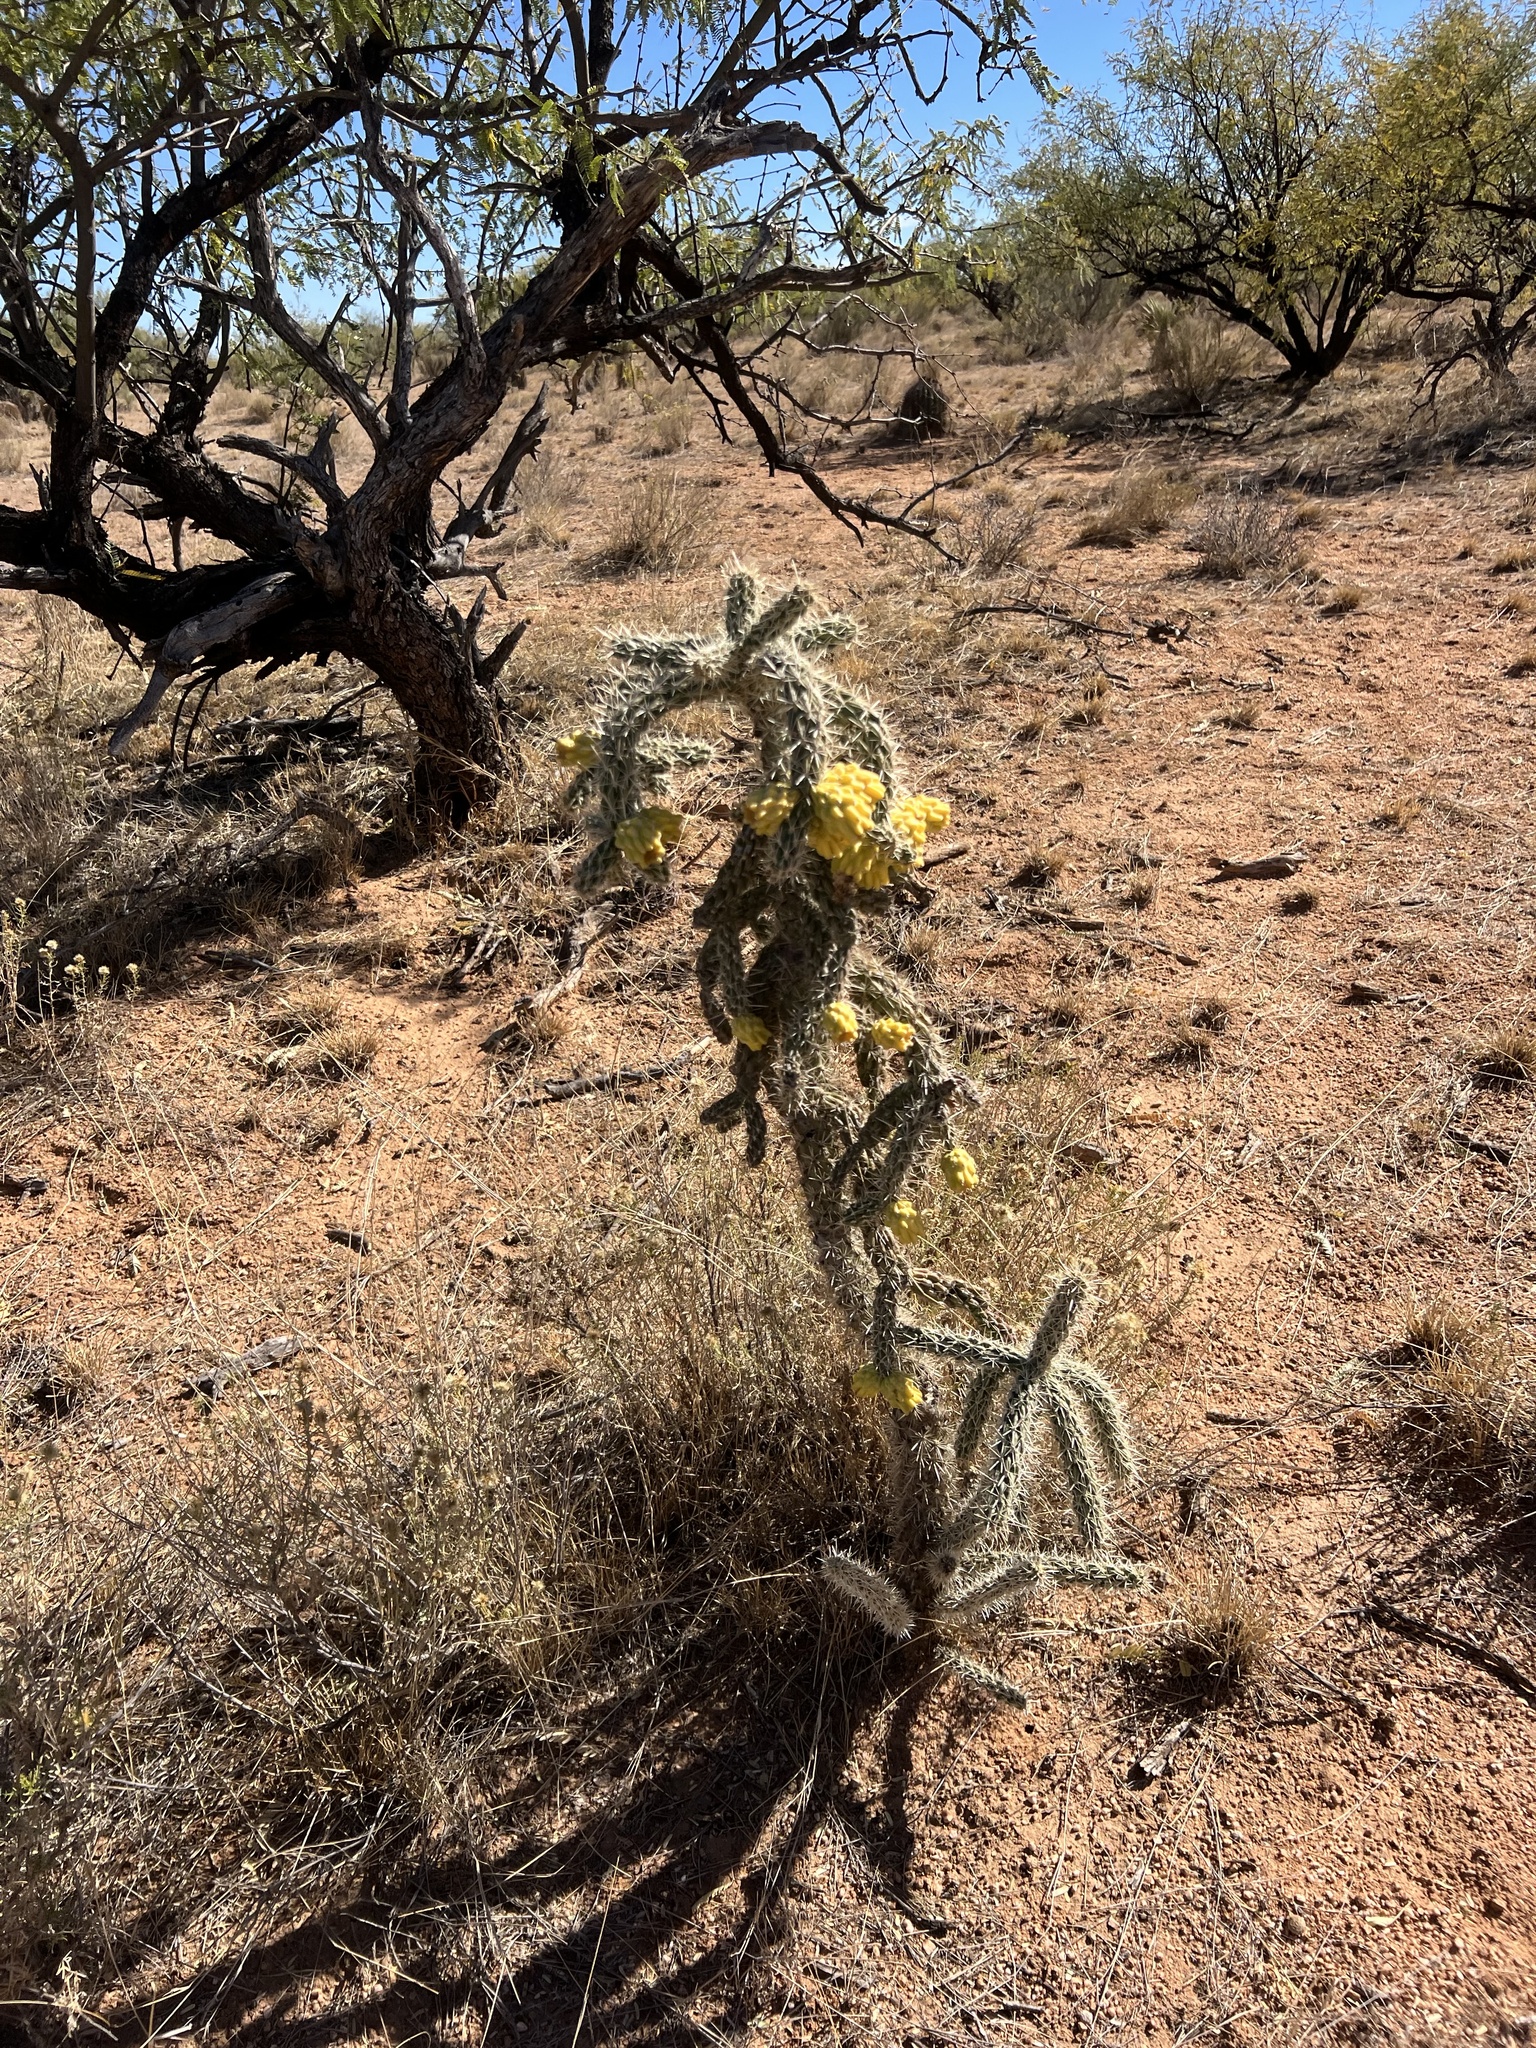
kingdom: Plantae
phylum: Tracheophyta
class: Magnoliopsida
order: Caryophyllales
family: Cactaceae
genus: Cylindropuntia
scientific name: Cylindropuntia imbricata
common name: Candelabrum cactus
